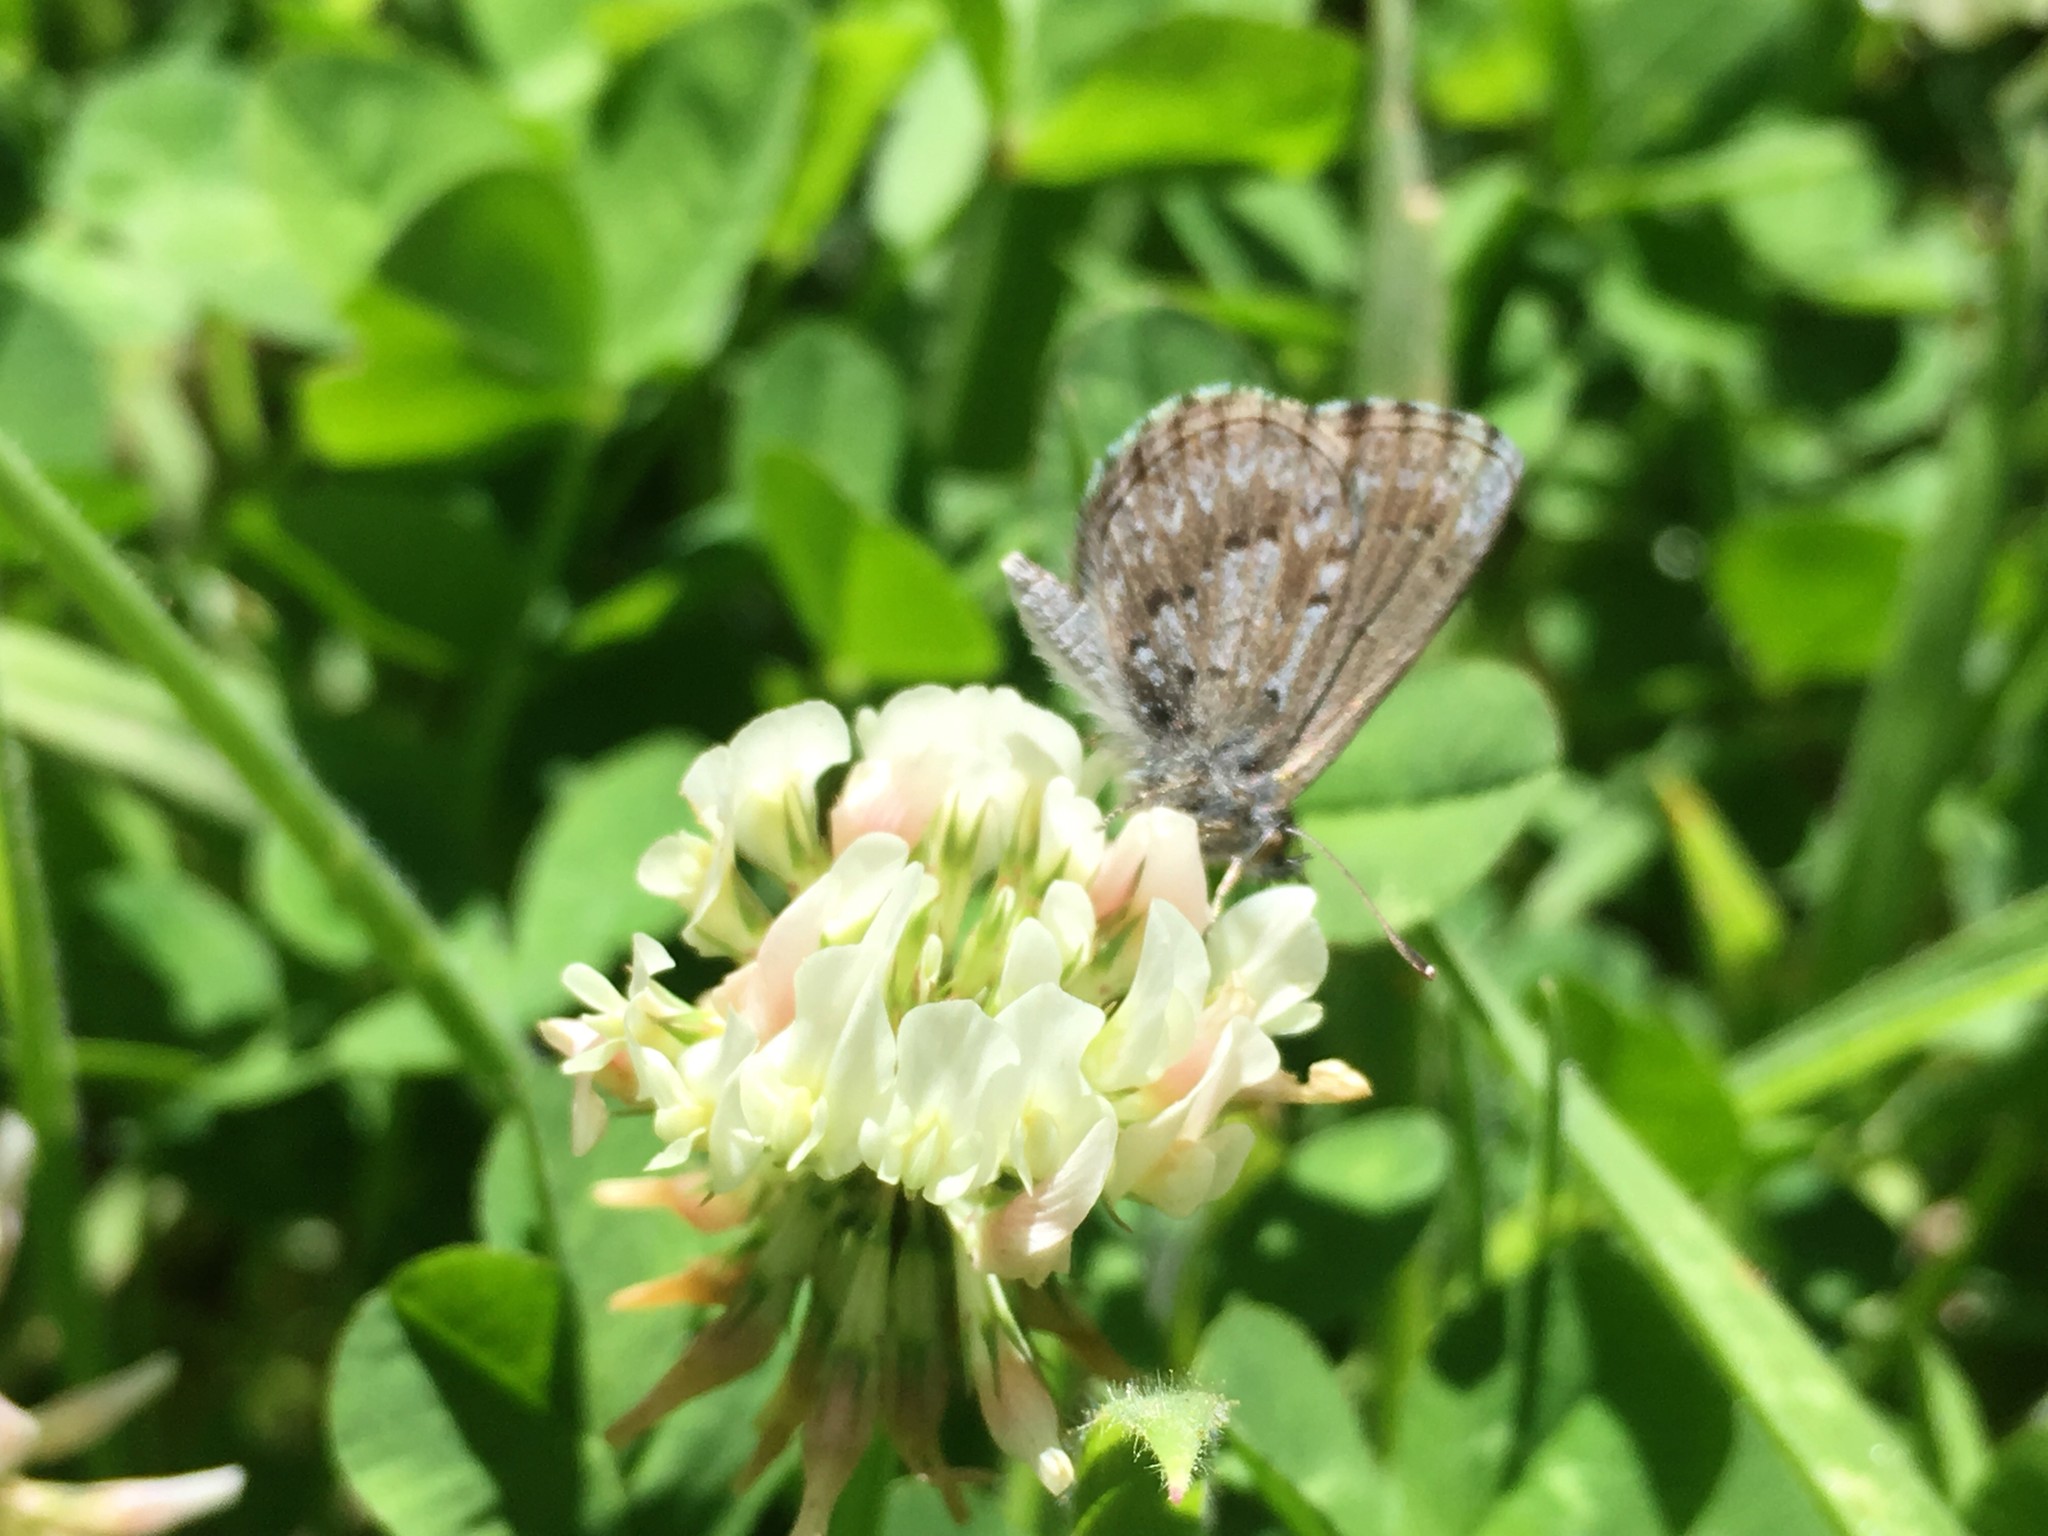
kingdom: Animalia
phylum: Arthropoda
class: Insecta
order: Lepidoptera
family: Lycaenidae
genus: Zizina
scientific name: Zizina oxleyi
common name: Southern blue
